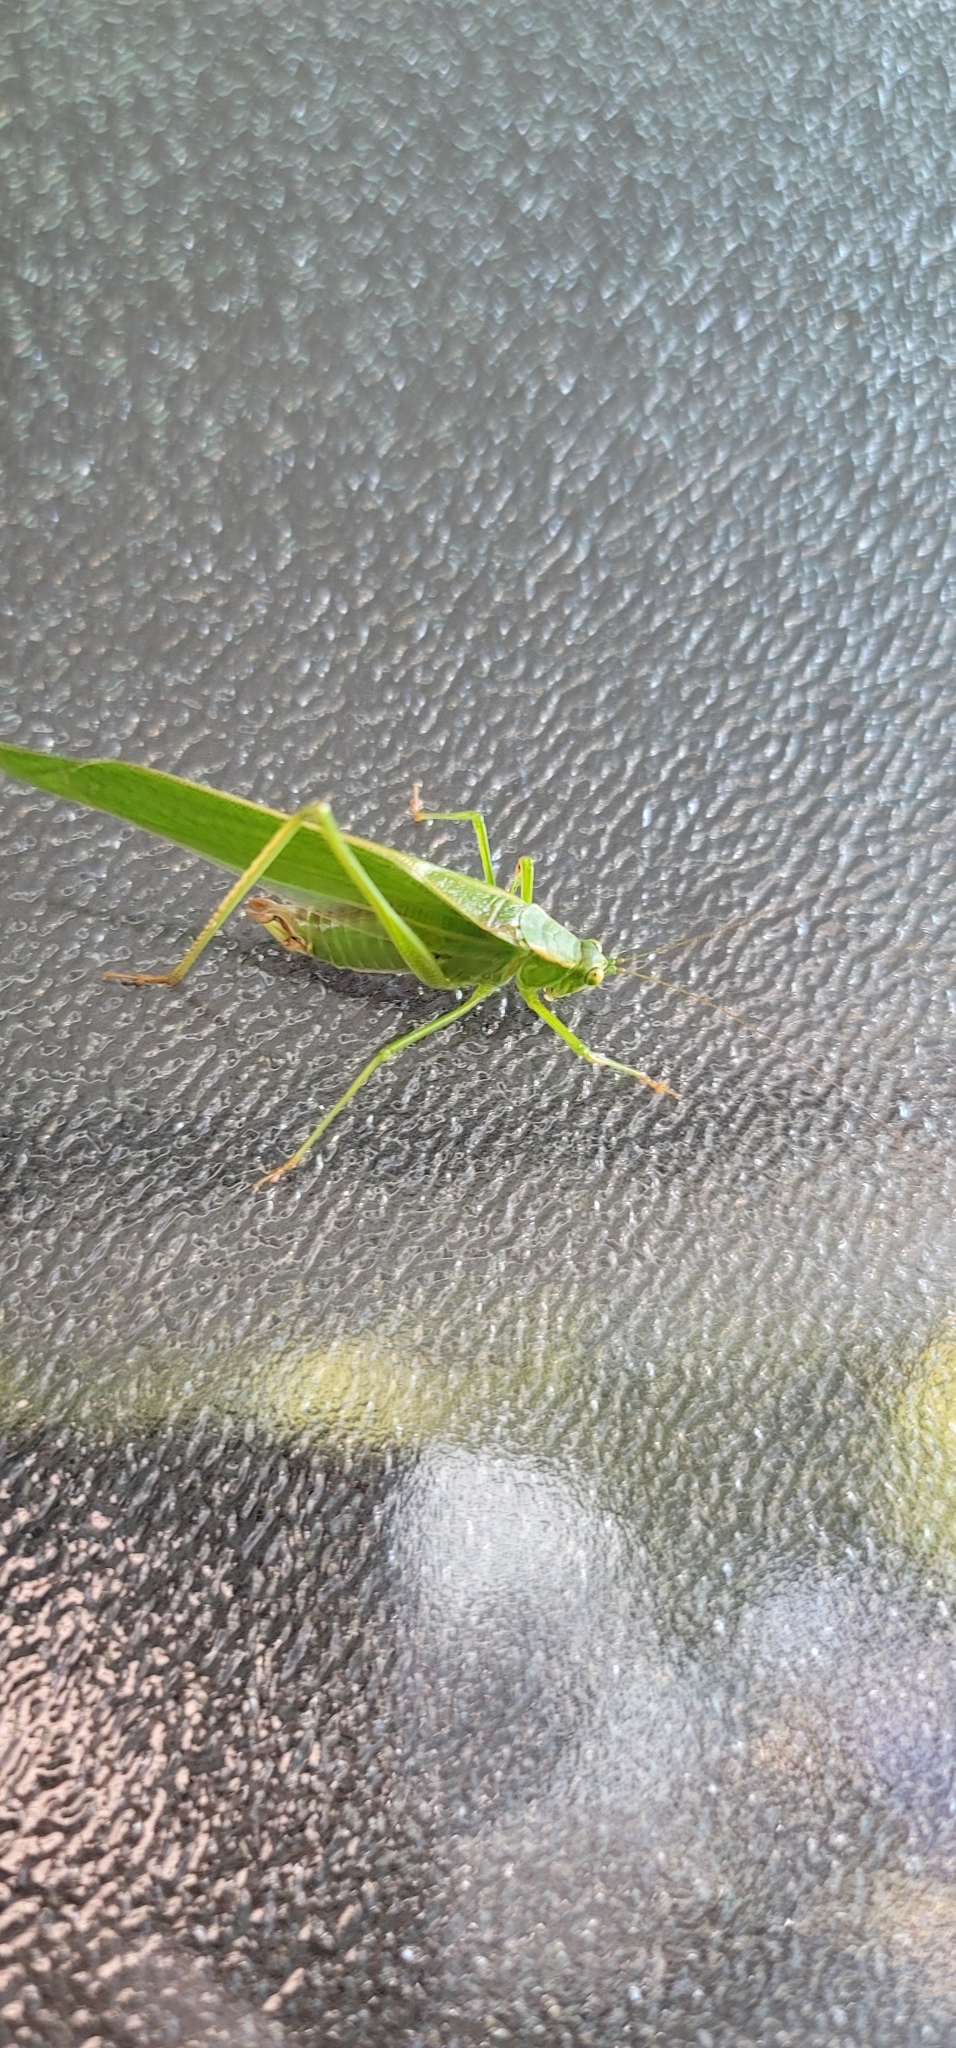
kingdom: Animalia
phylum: Arthropoda
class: Insecta
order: Orthoptera
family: Tettigoniidae
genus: Scudderia
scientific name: Scudderia furcata
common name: Fork-tailed bush katydid
